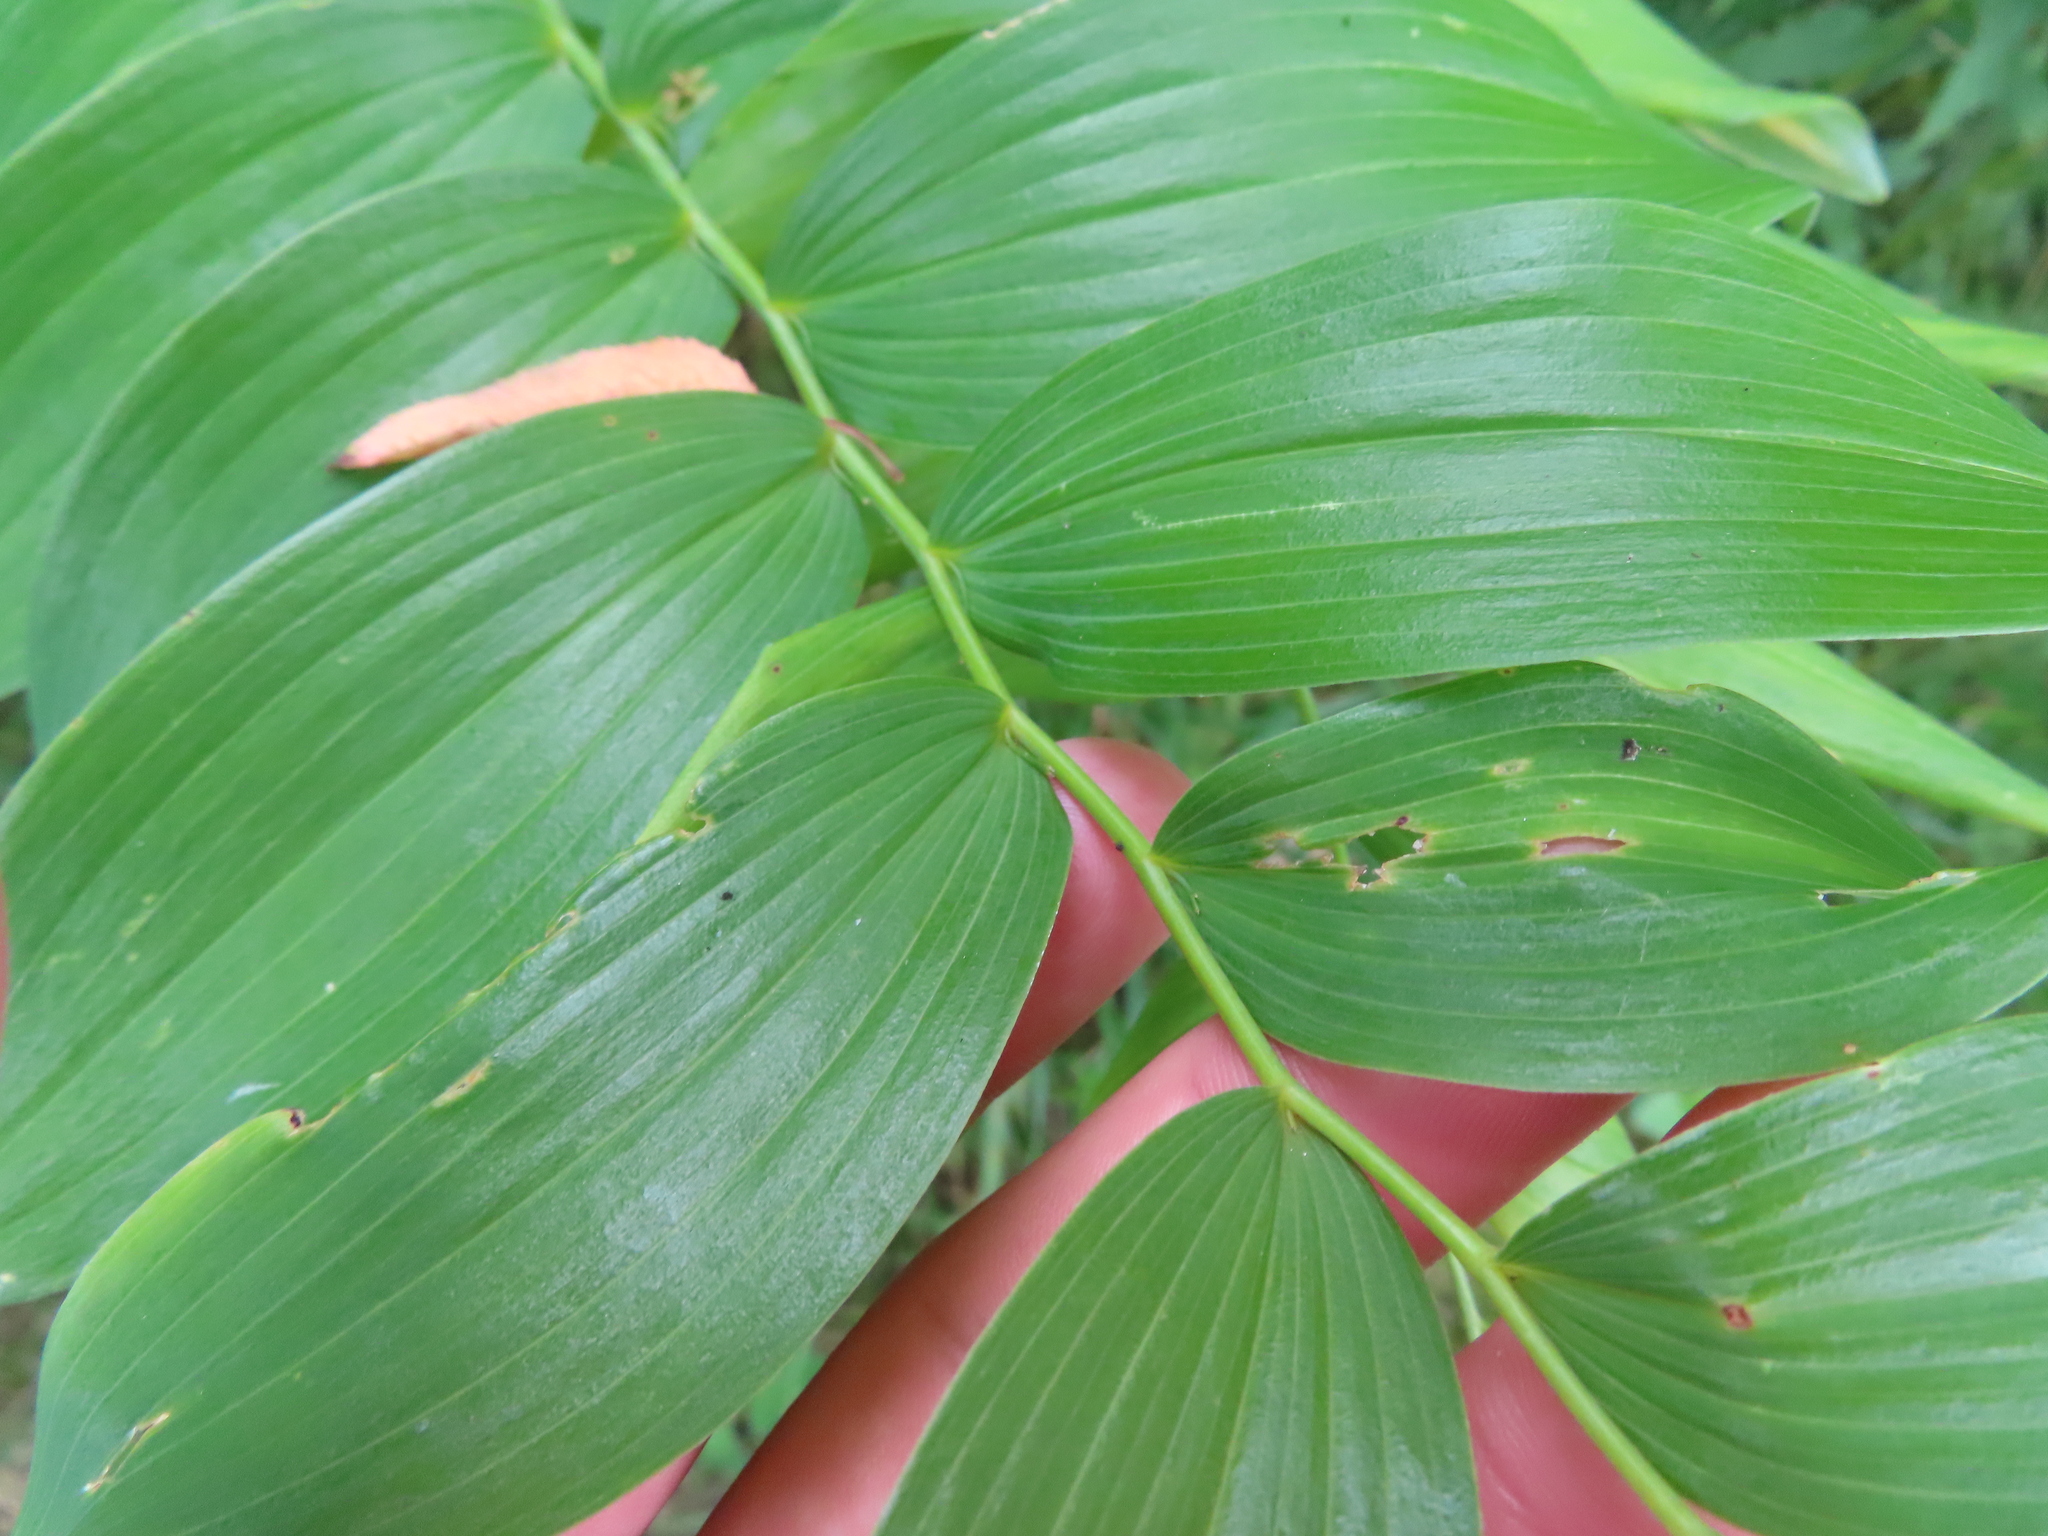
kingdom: Plantae
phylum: Tracheophyta
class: Liliopsida
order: Asparagales
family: Asparagaceae
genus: Polygonatum
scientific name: Polygonatum biflorum
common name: American solomon's-seal
